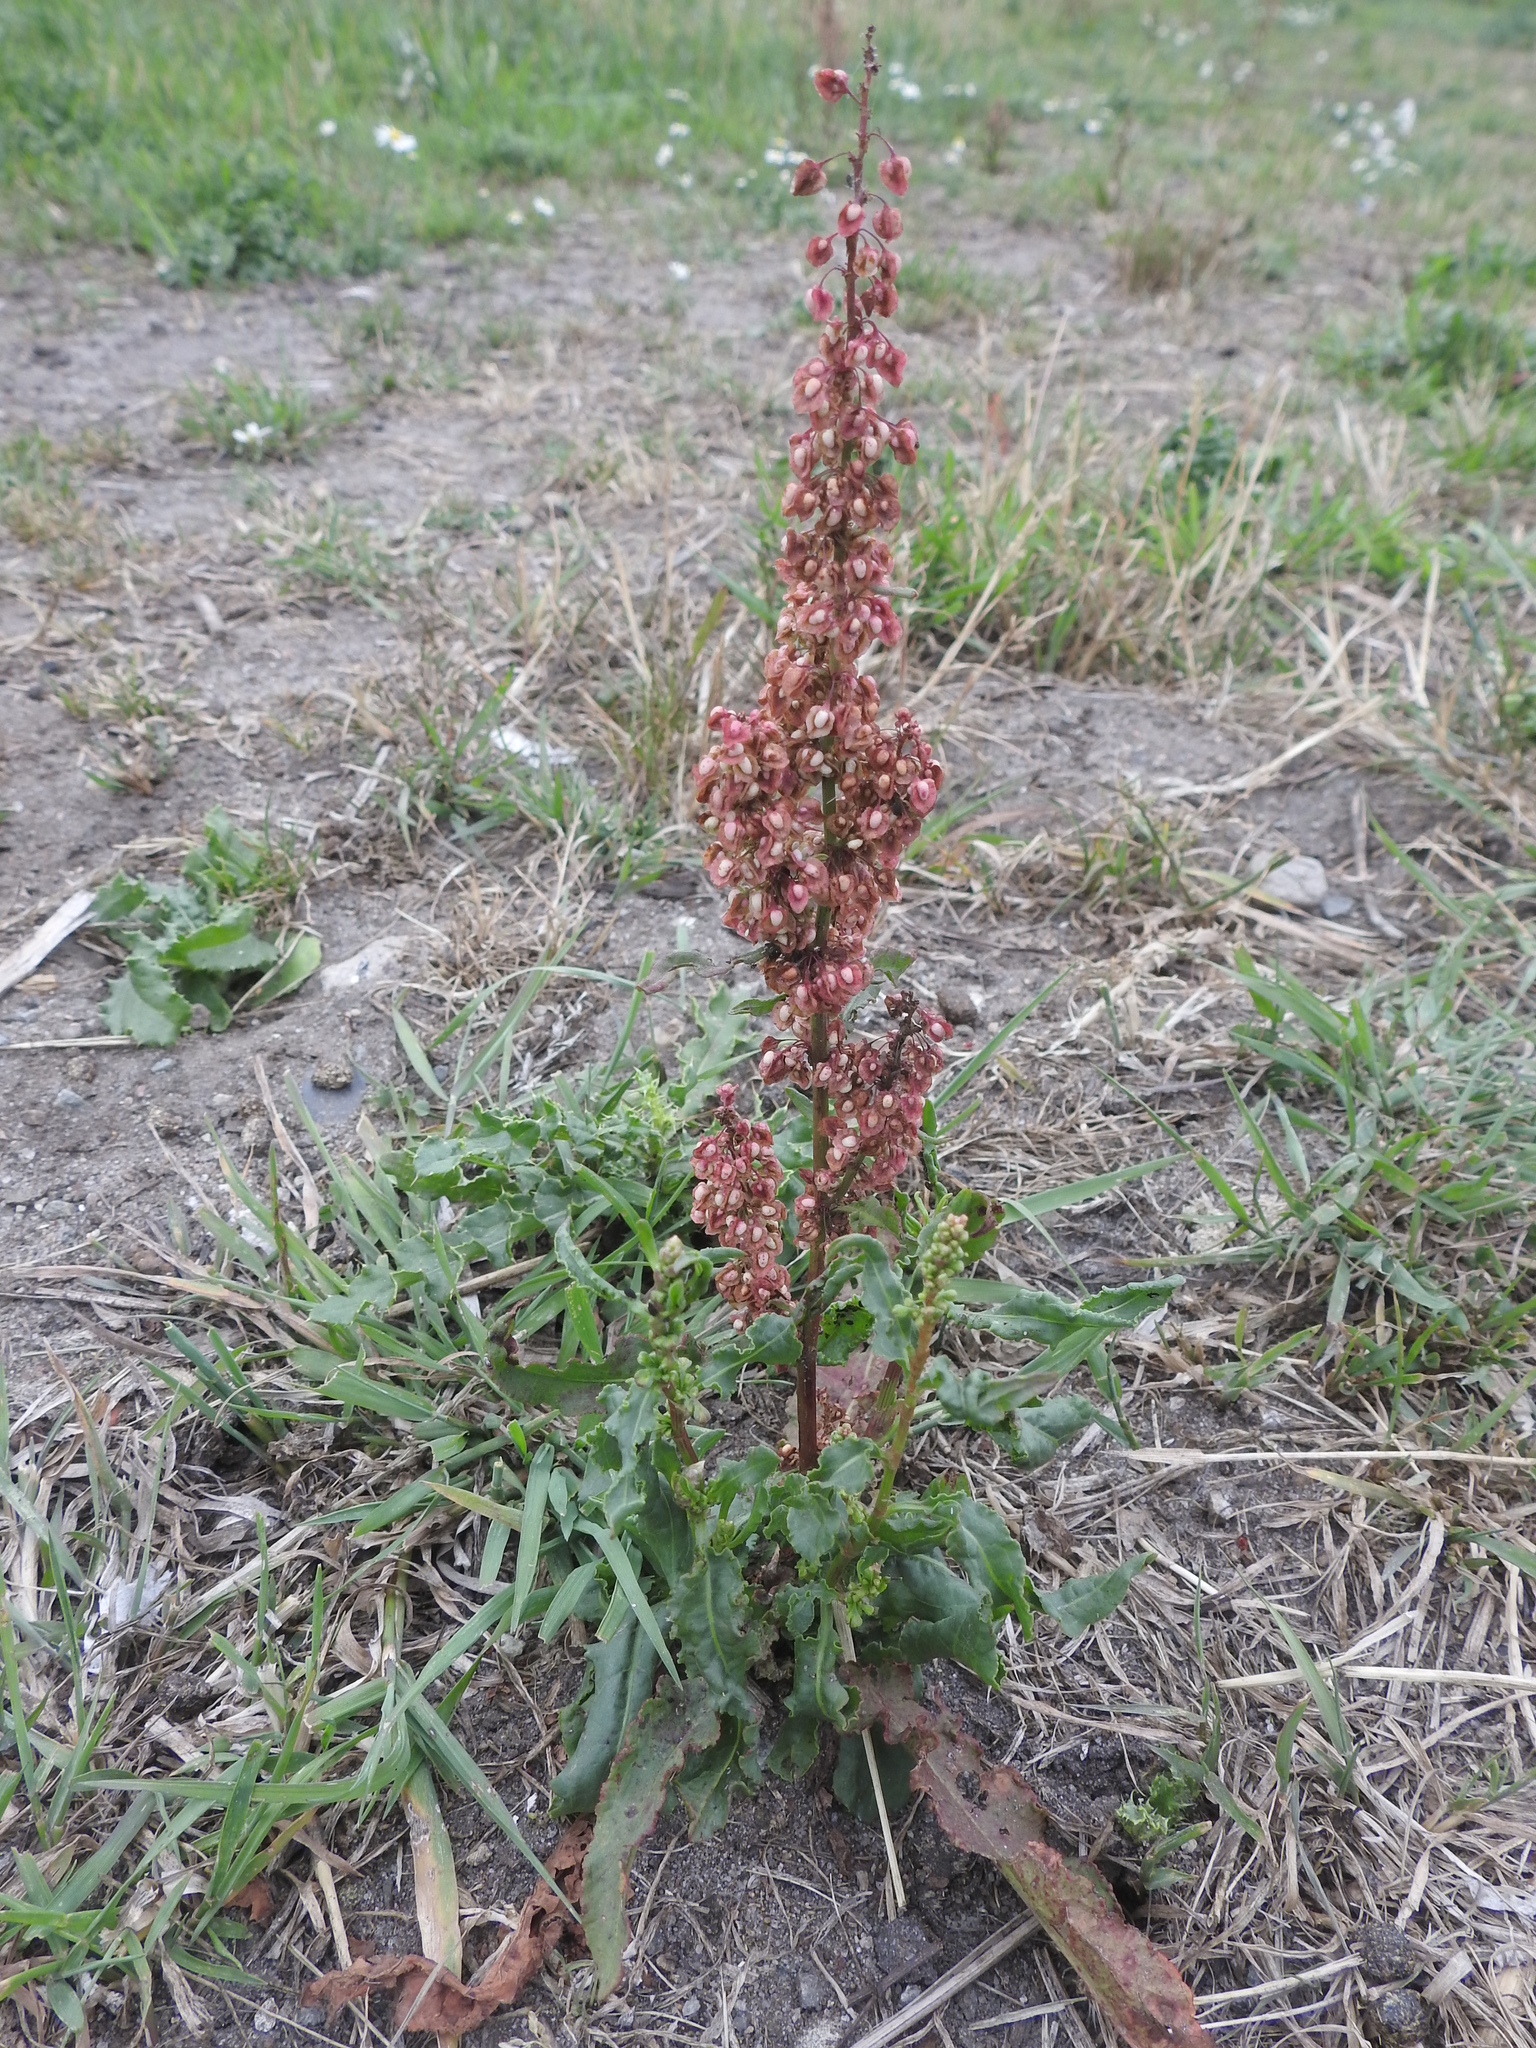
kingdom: Plantae
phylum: Tracheophyta
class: Magnoliopsida
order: Caryophyllales
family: Polygonaceae
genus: Rumex
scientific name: Rumex crispus
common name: Curled dock
